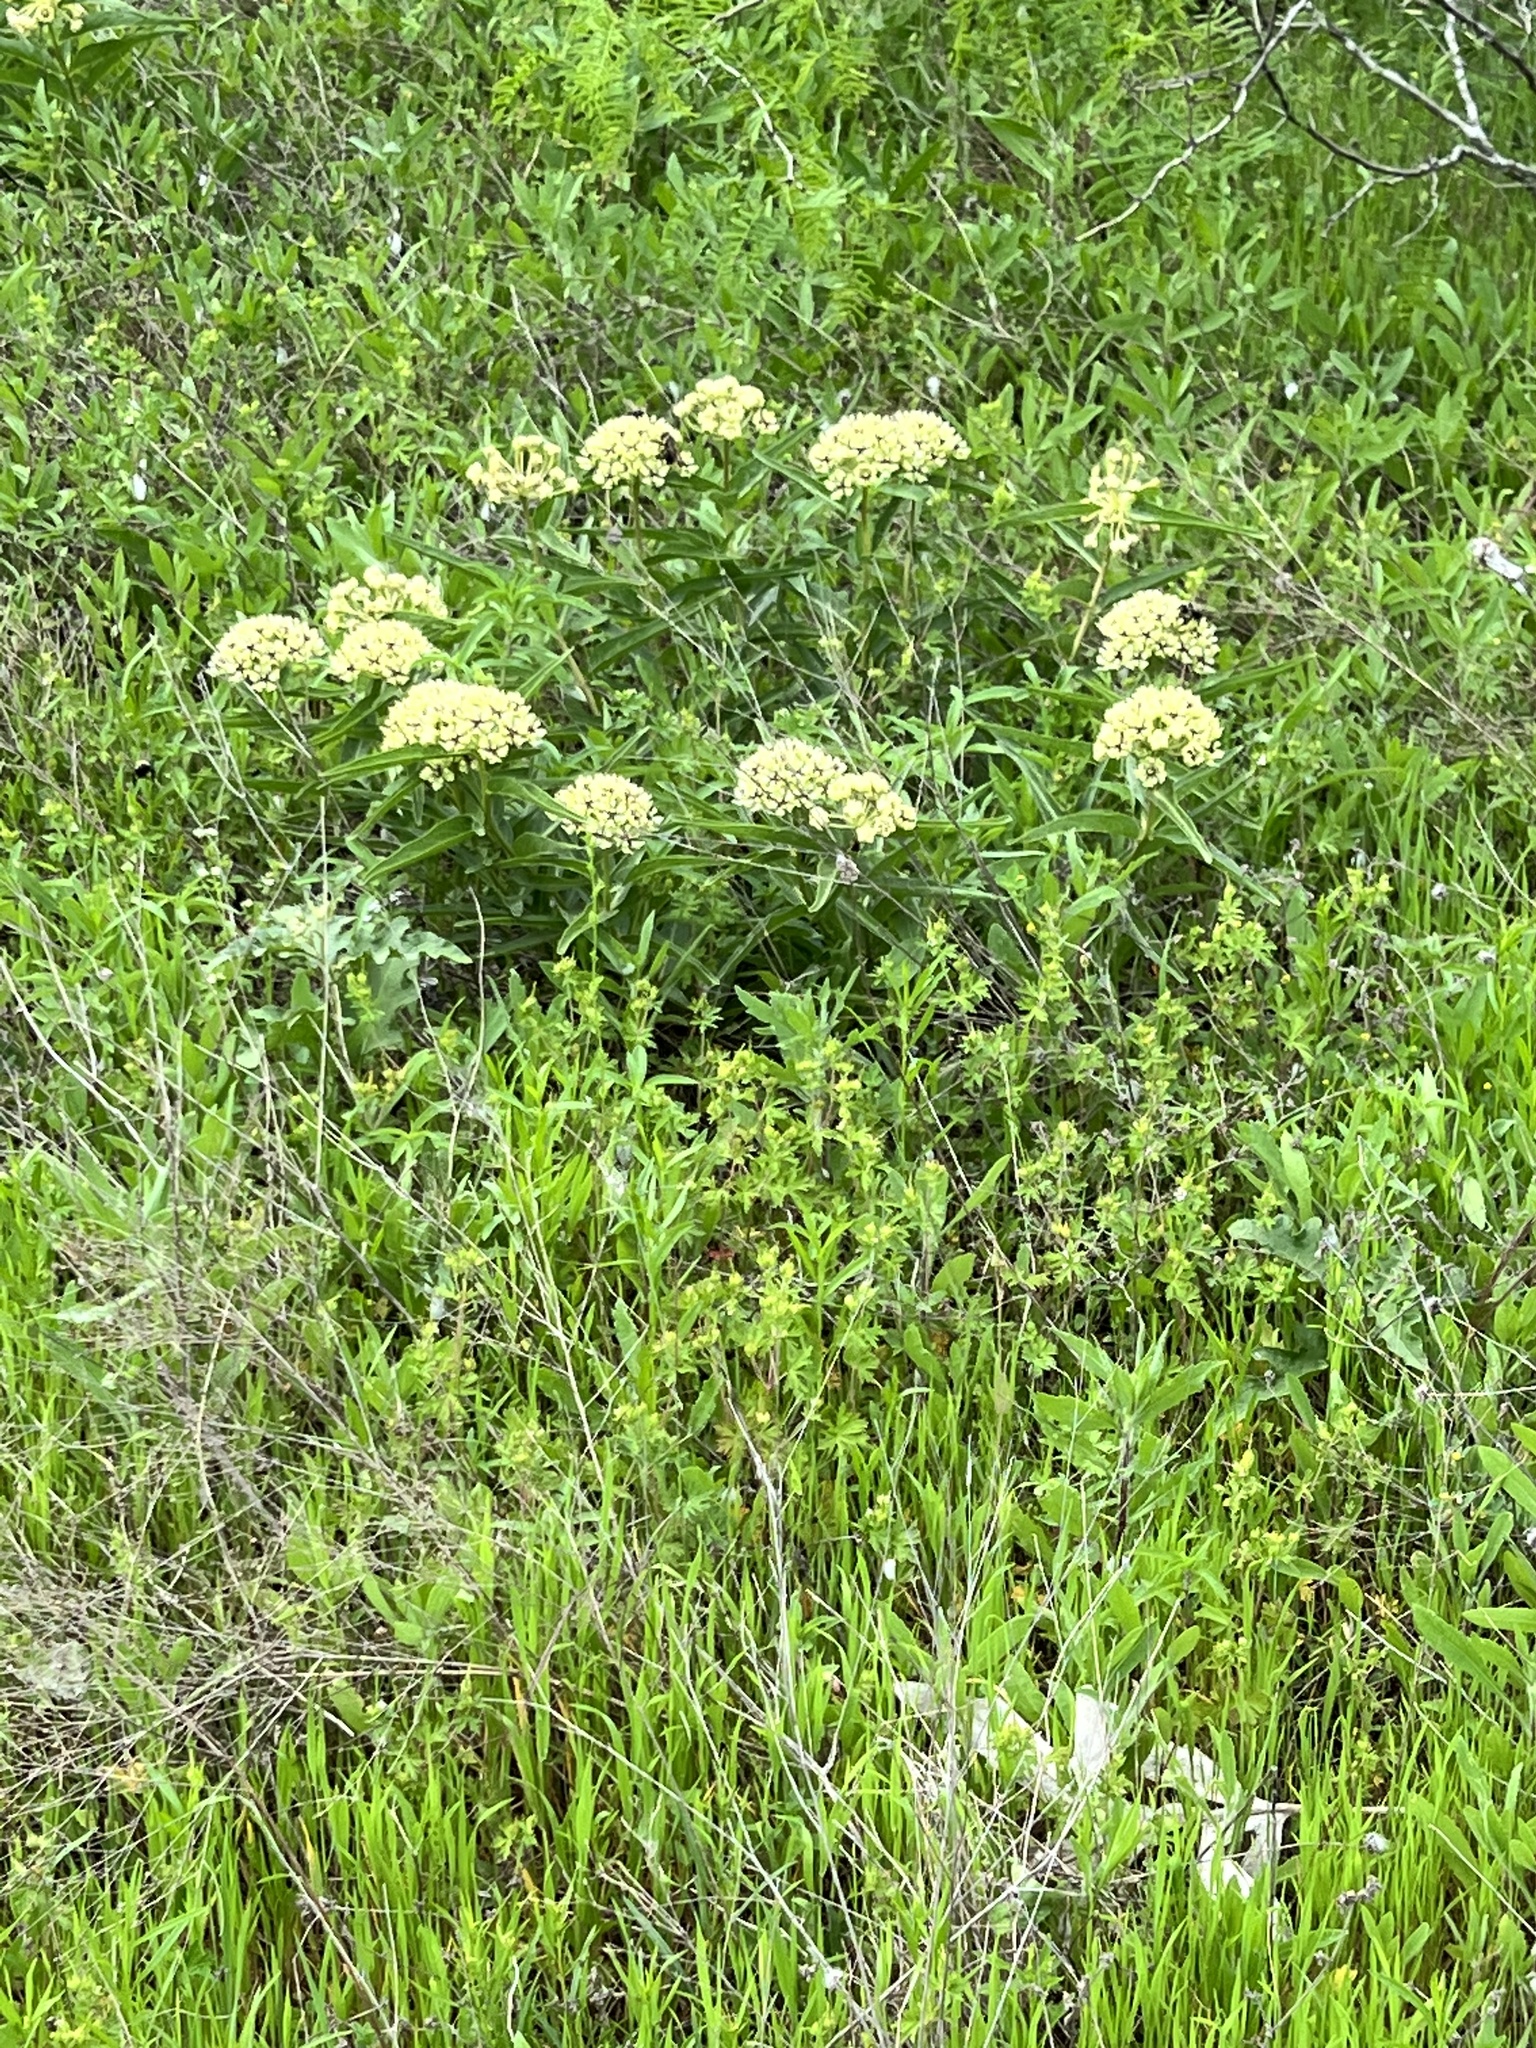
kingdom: Plantae
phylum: Tracheophyta
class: Magnoliopsida
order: Gentianales
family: Apocynaceae
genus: Asclepias
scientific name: Asclepias asperula
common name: Antelope horns
